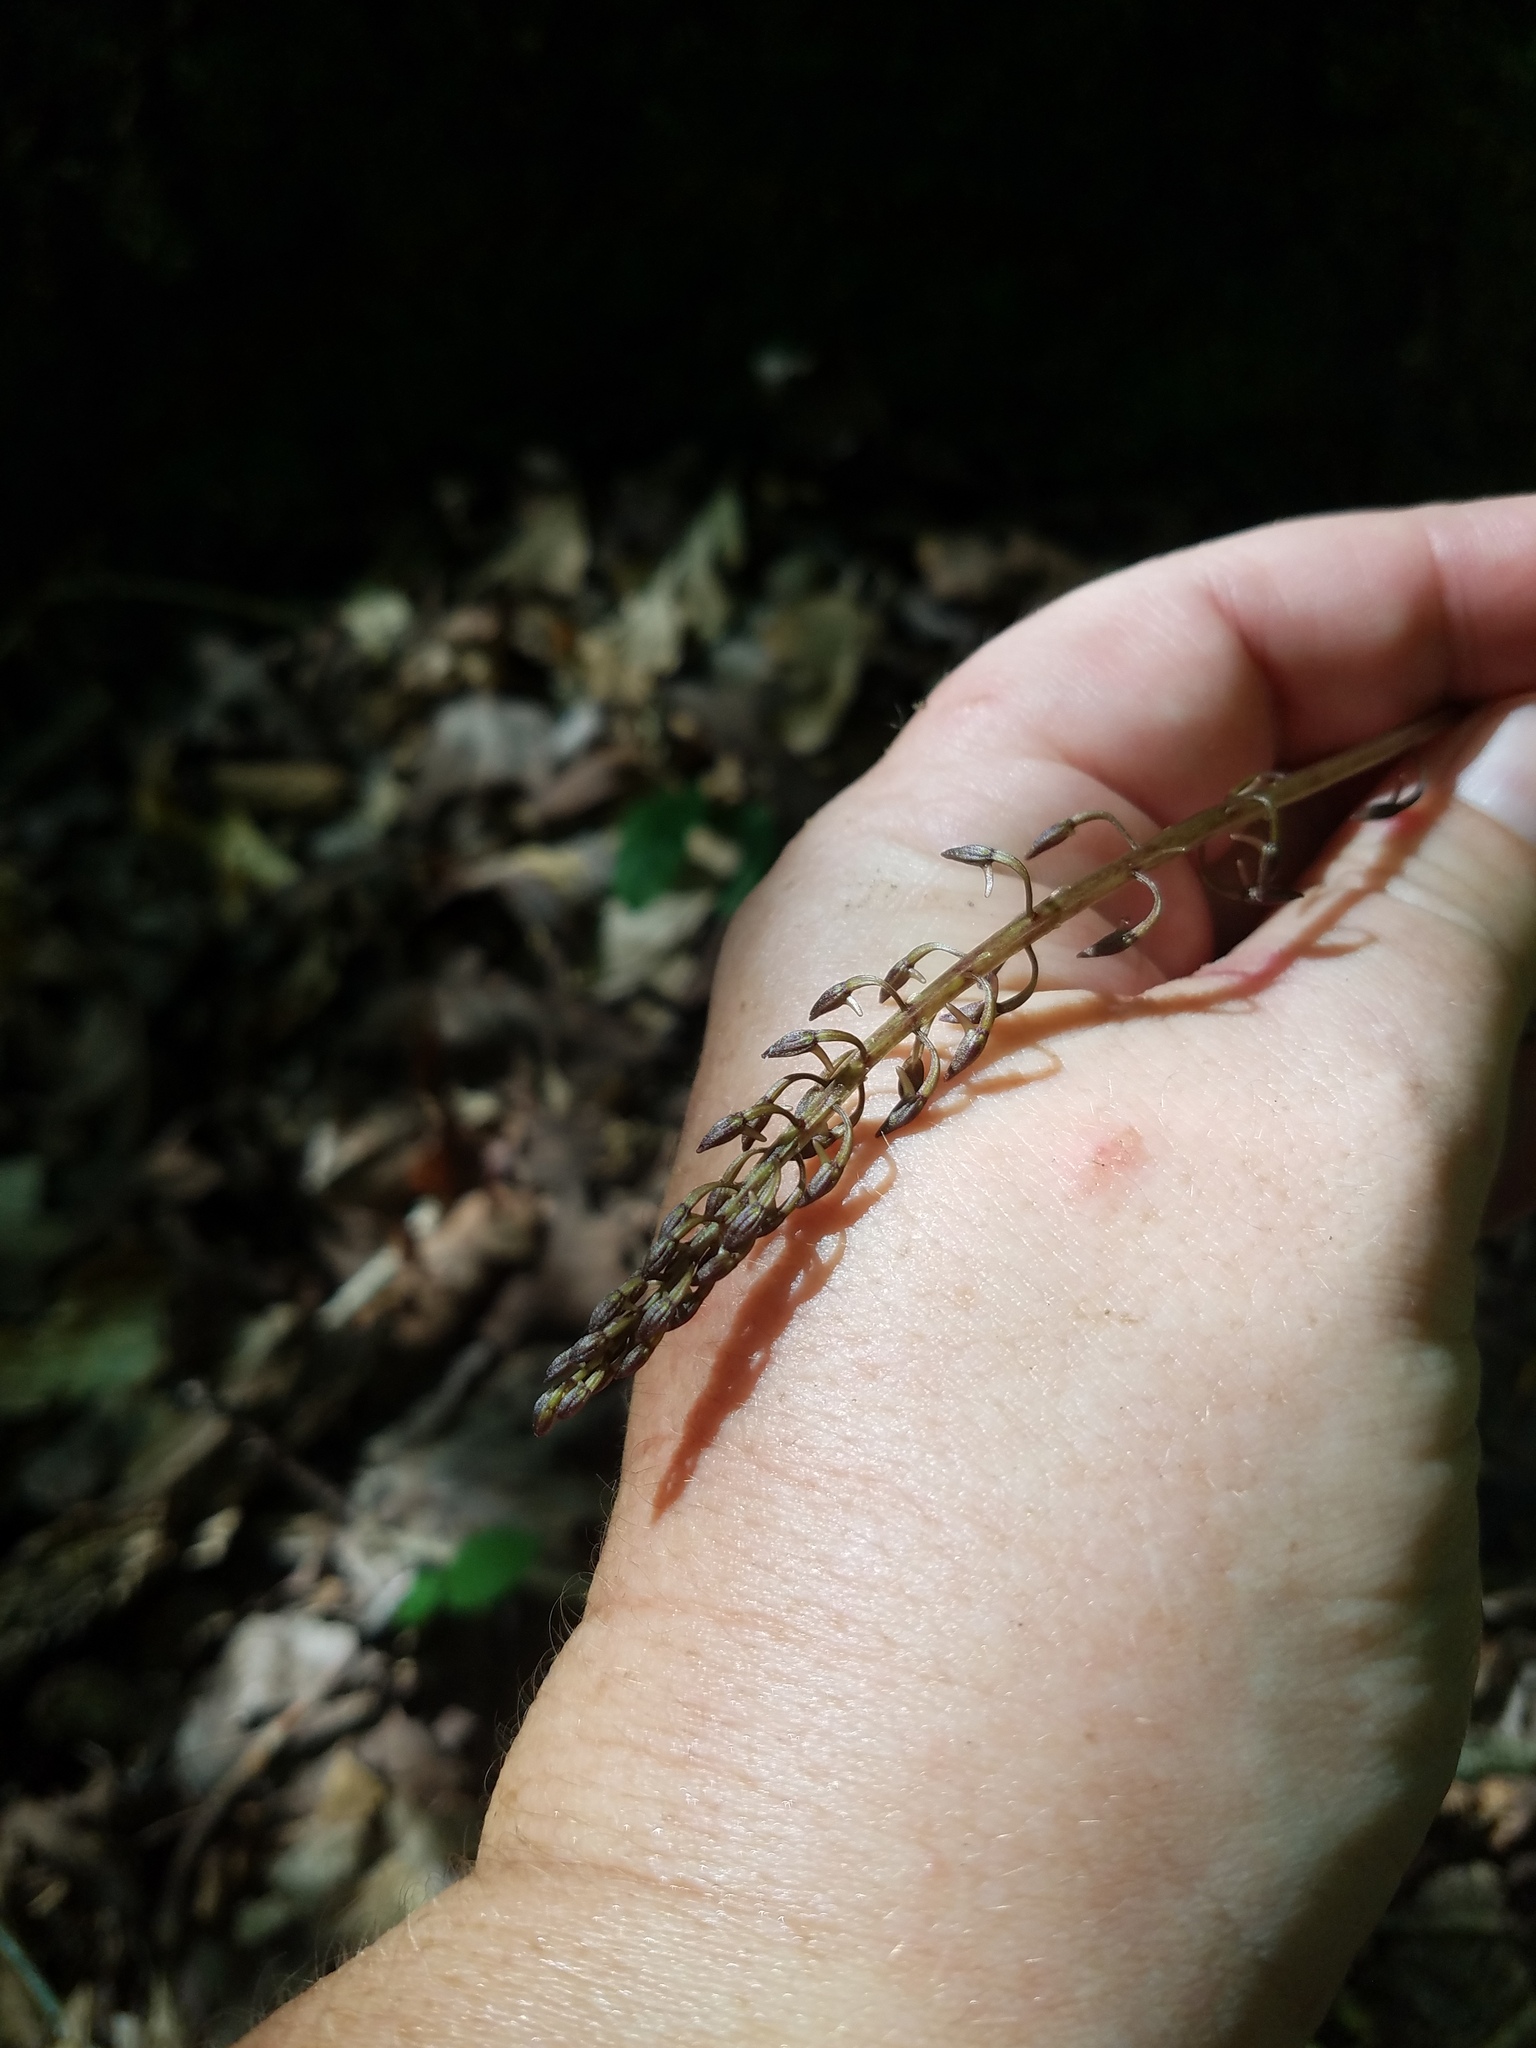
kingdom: Plantae
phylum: Tracheophyta
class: Liliopsida
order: Asparagales
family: Orchidaceae
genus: Tipularia
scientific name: Tipularia discolor
